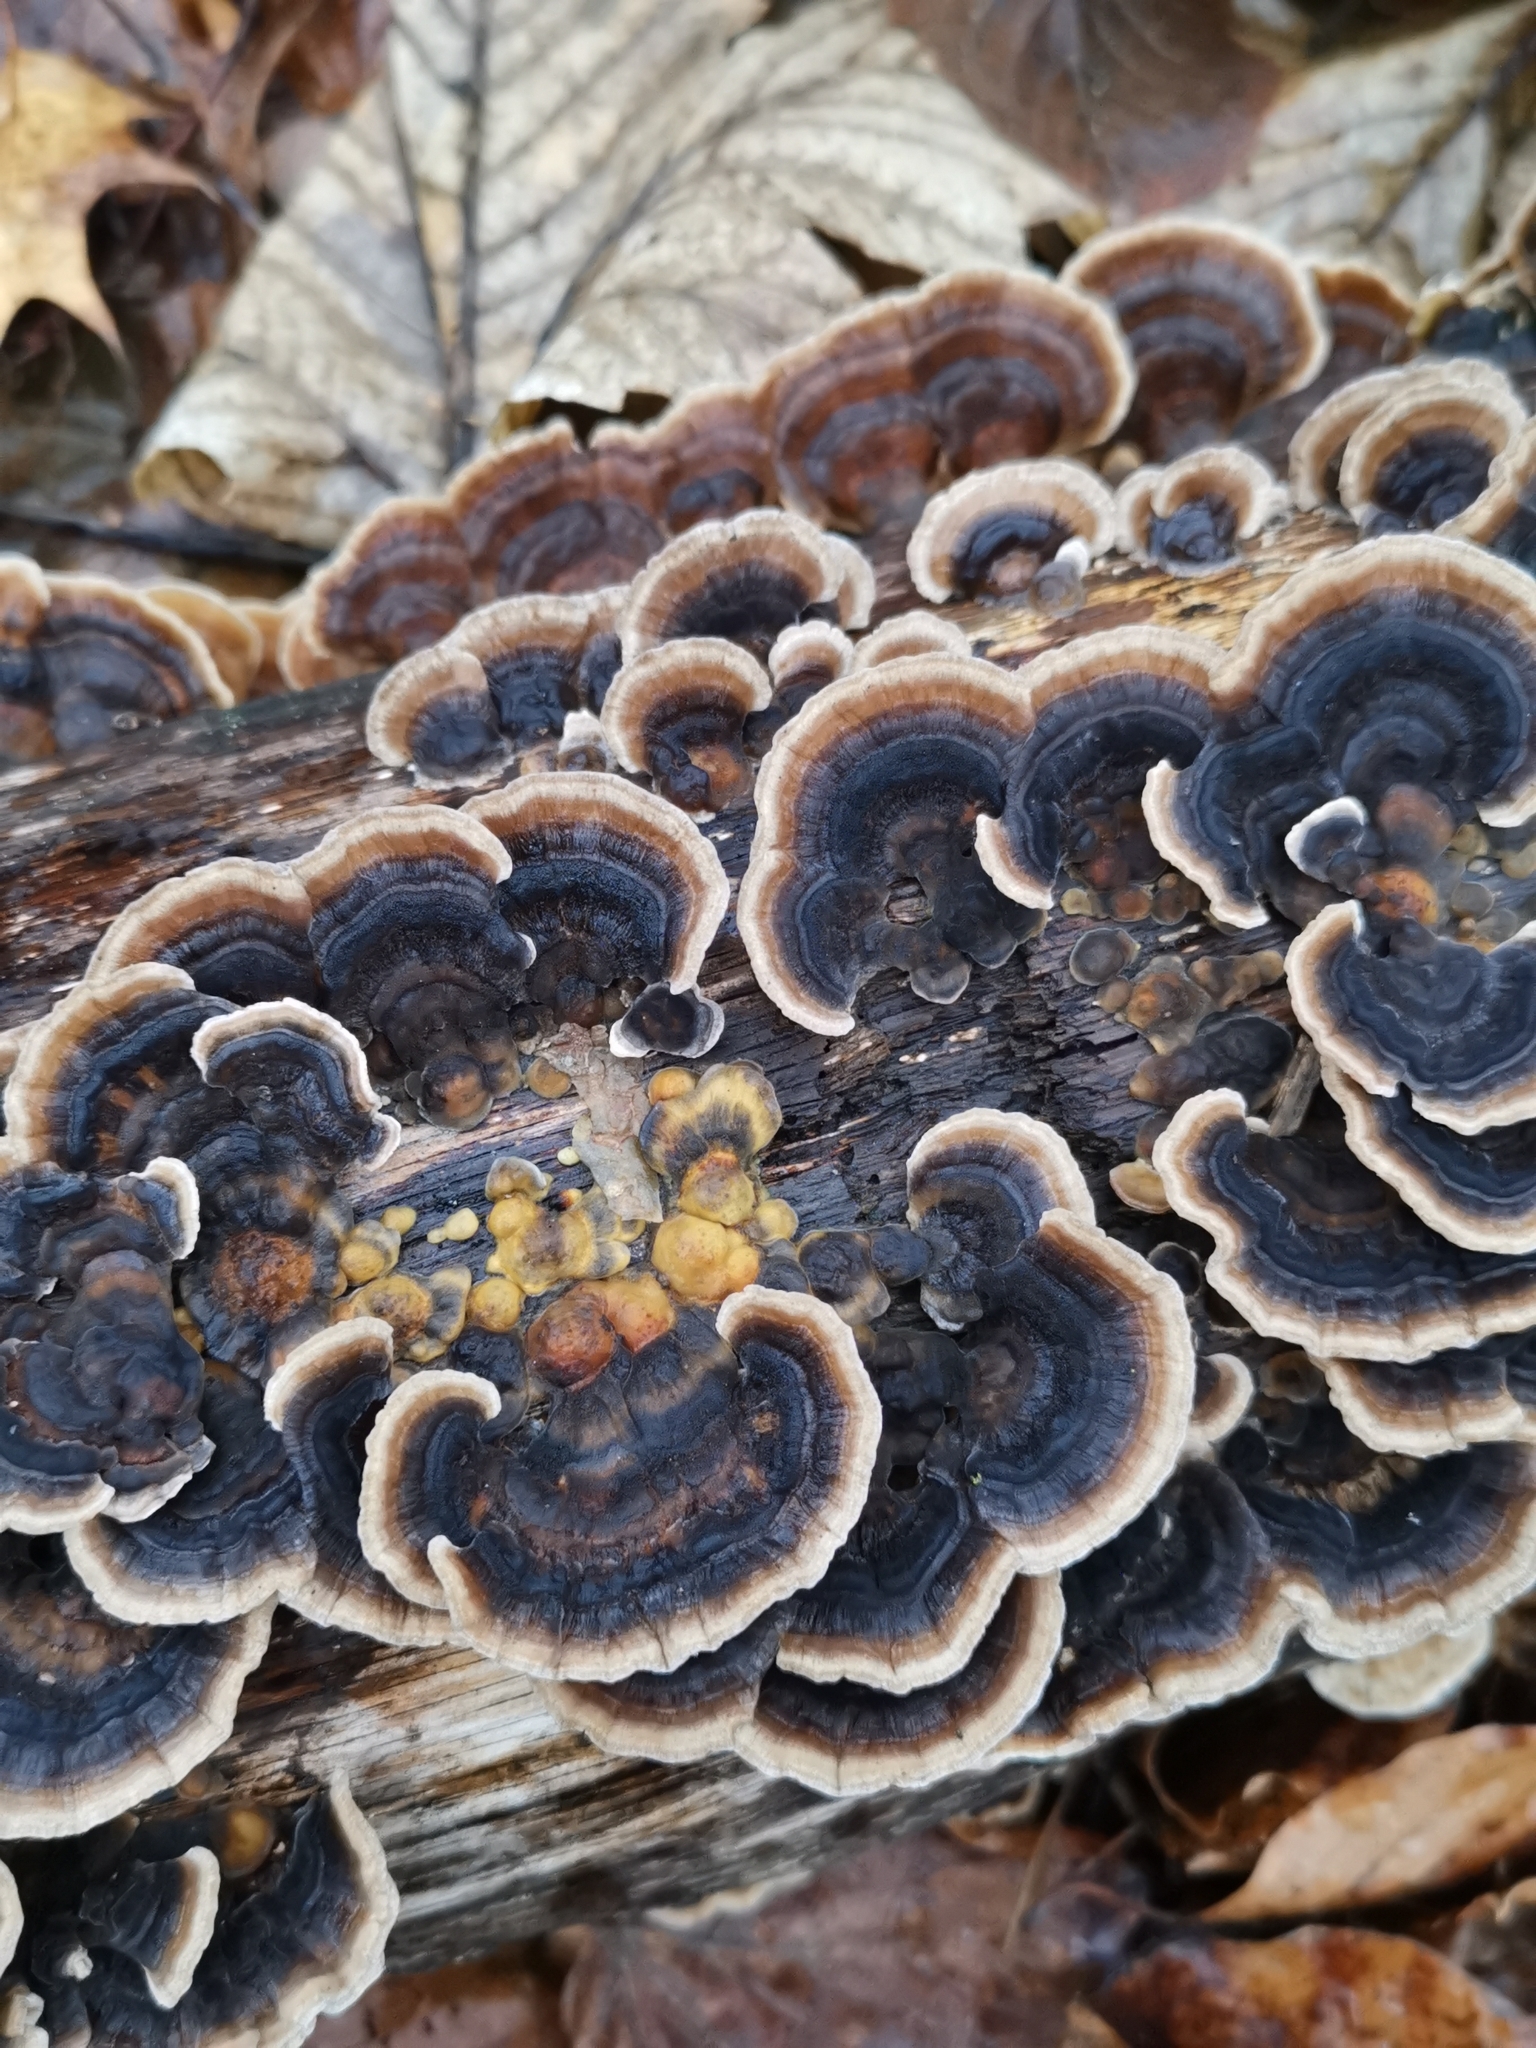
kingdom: Fungi
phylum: Basidiomycota
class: Agaricomycetes
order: Polyporales
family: Polyporaceae
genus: Trametes
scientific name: Trametes versicolor
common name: Turkeytail
